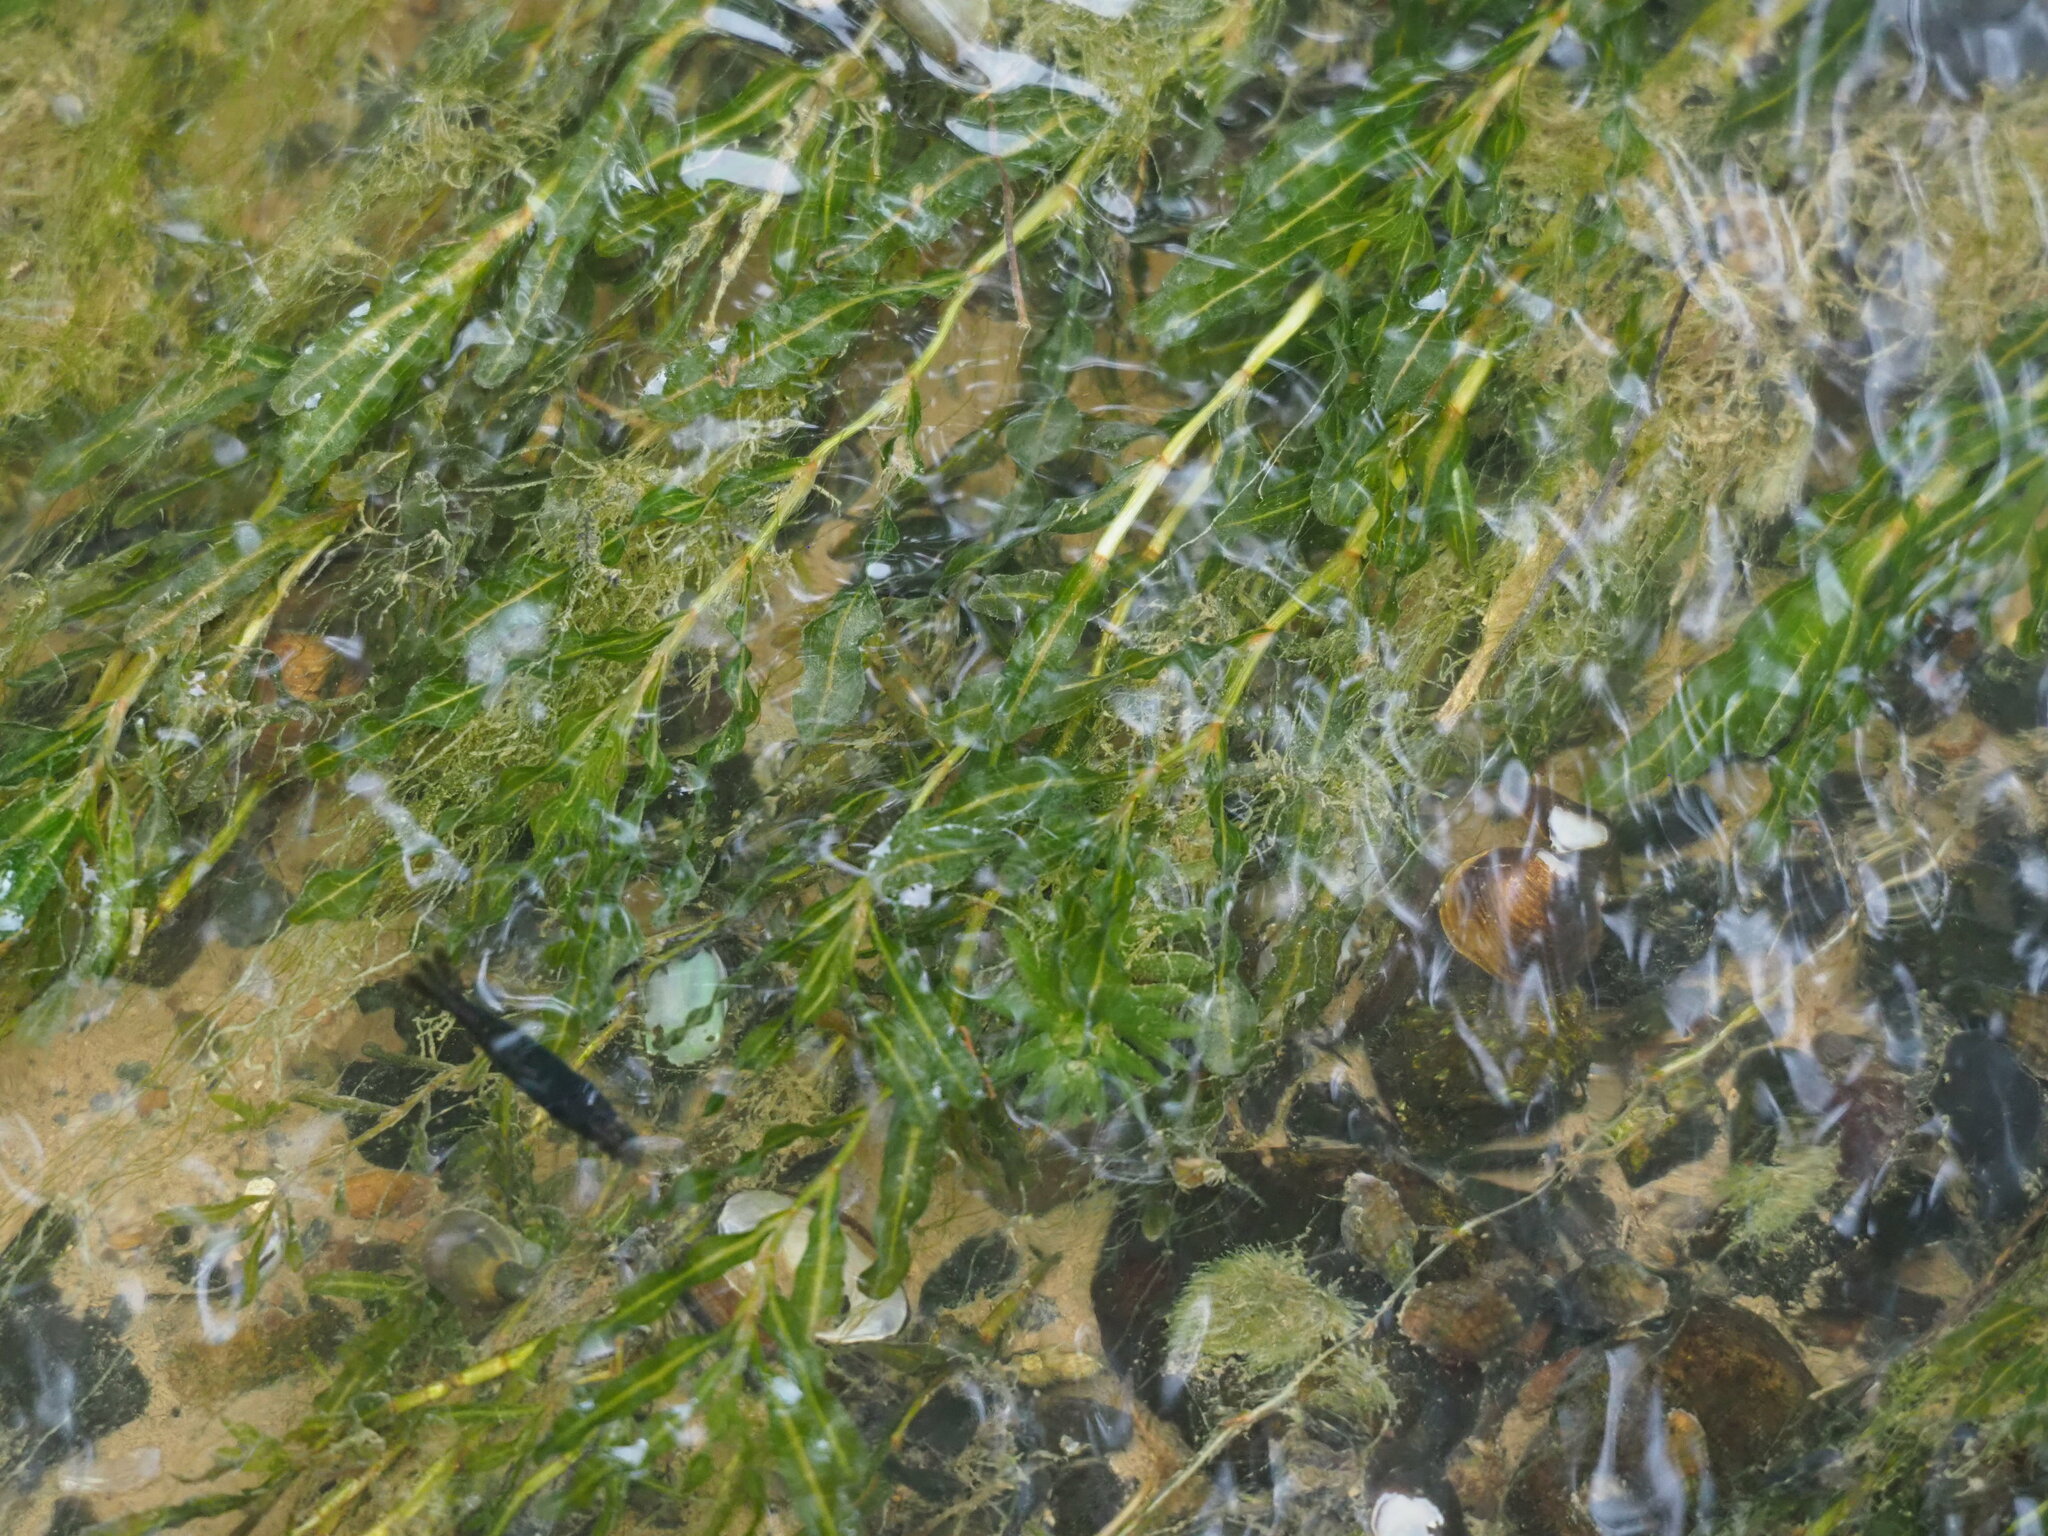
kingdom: Plantae
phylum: Tracheophyta
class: Liliopsida
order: Alismatales
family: Potamogetonaceae
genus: Potamogeton
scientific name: Potamogeton crispus
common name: Curled pondweed
